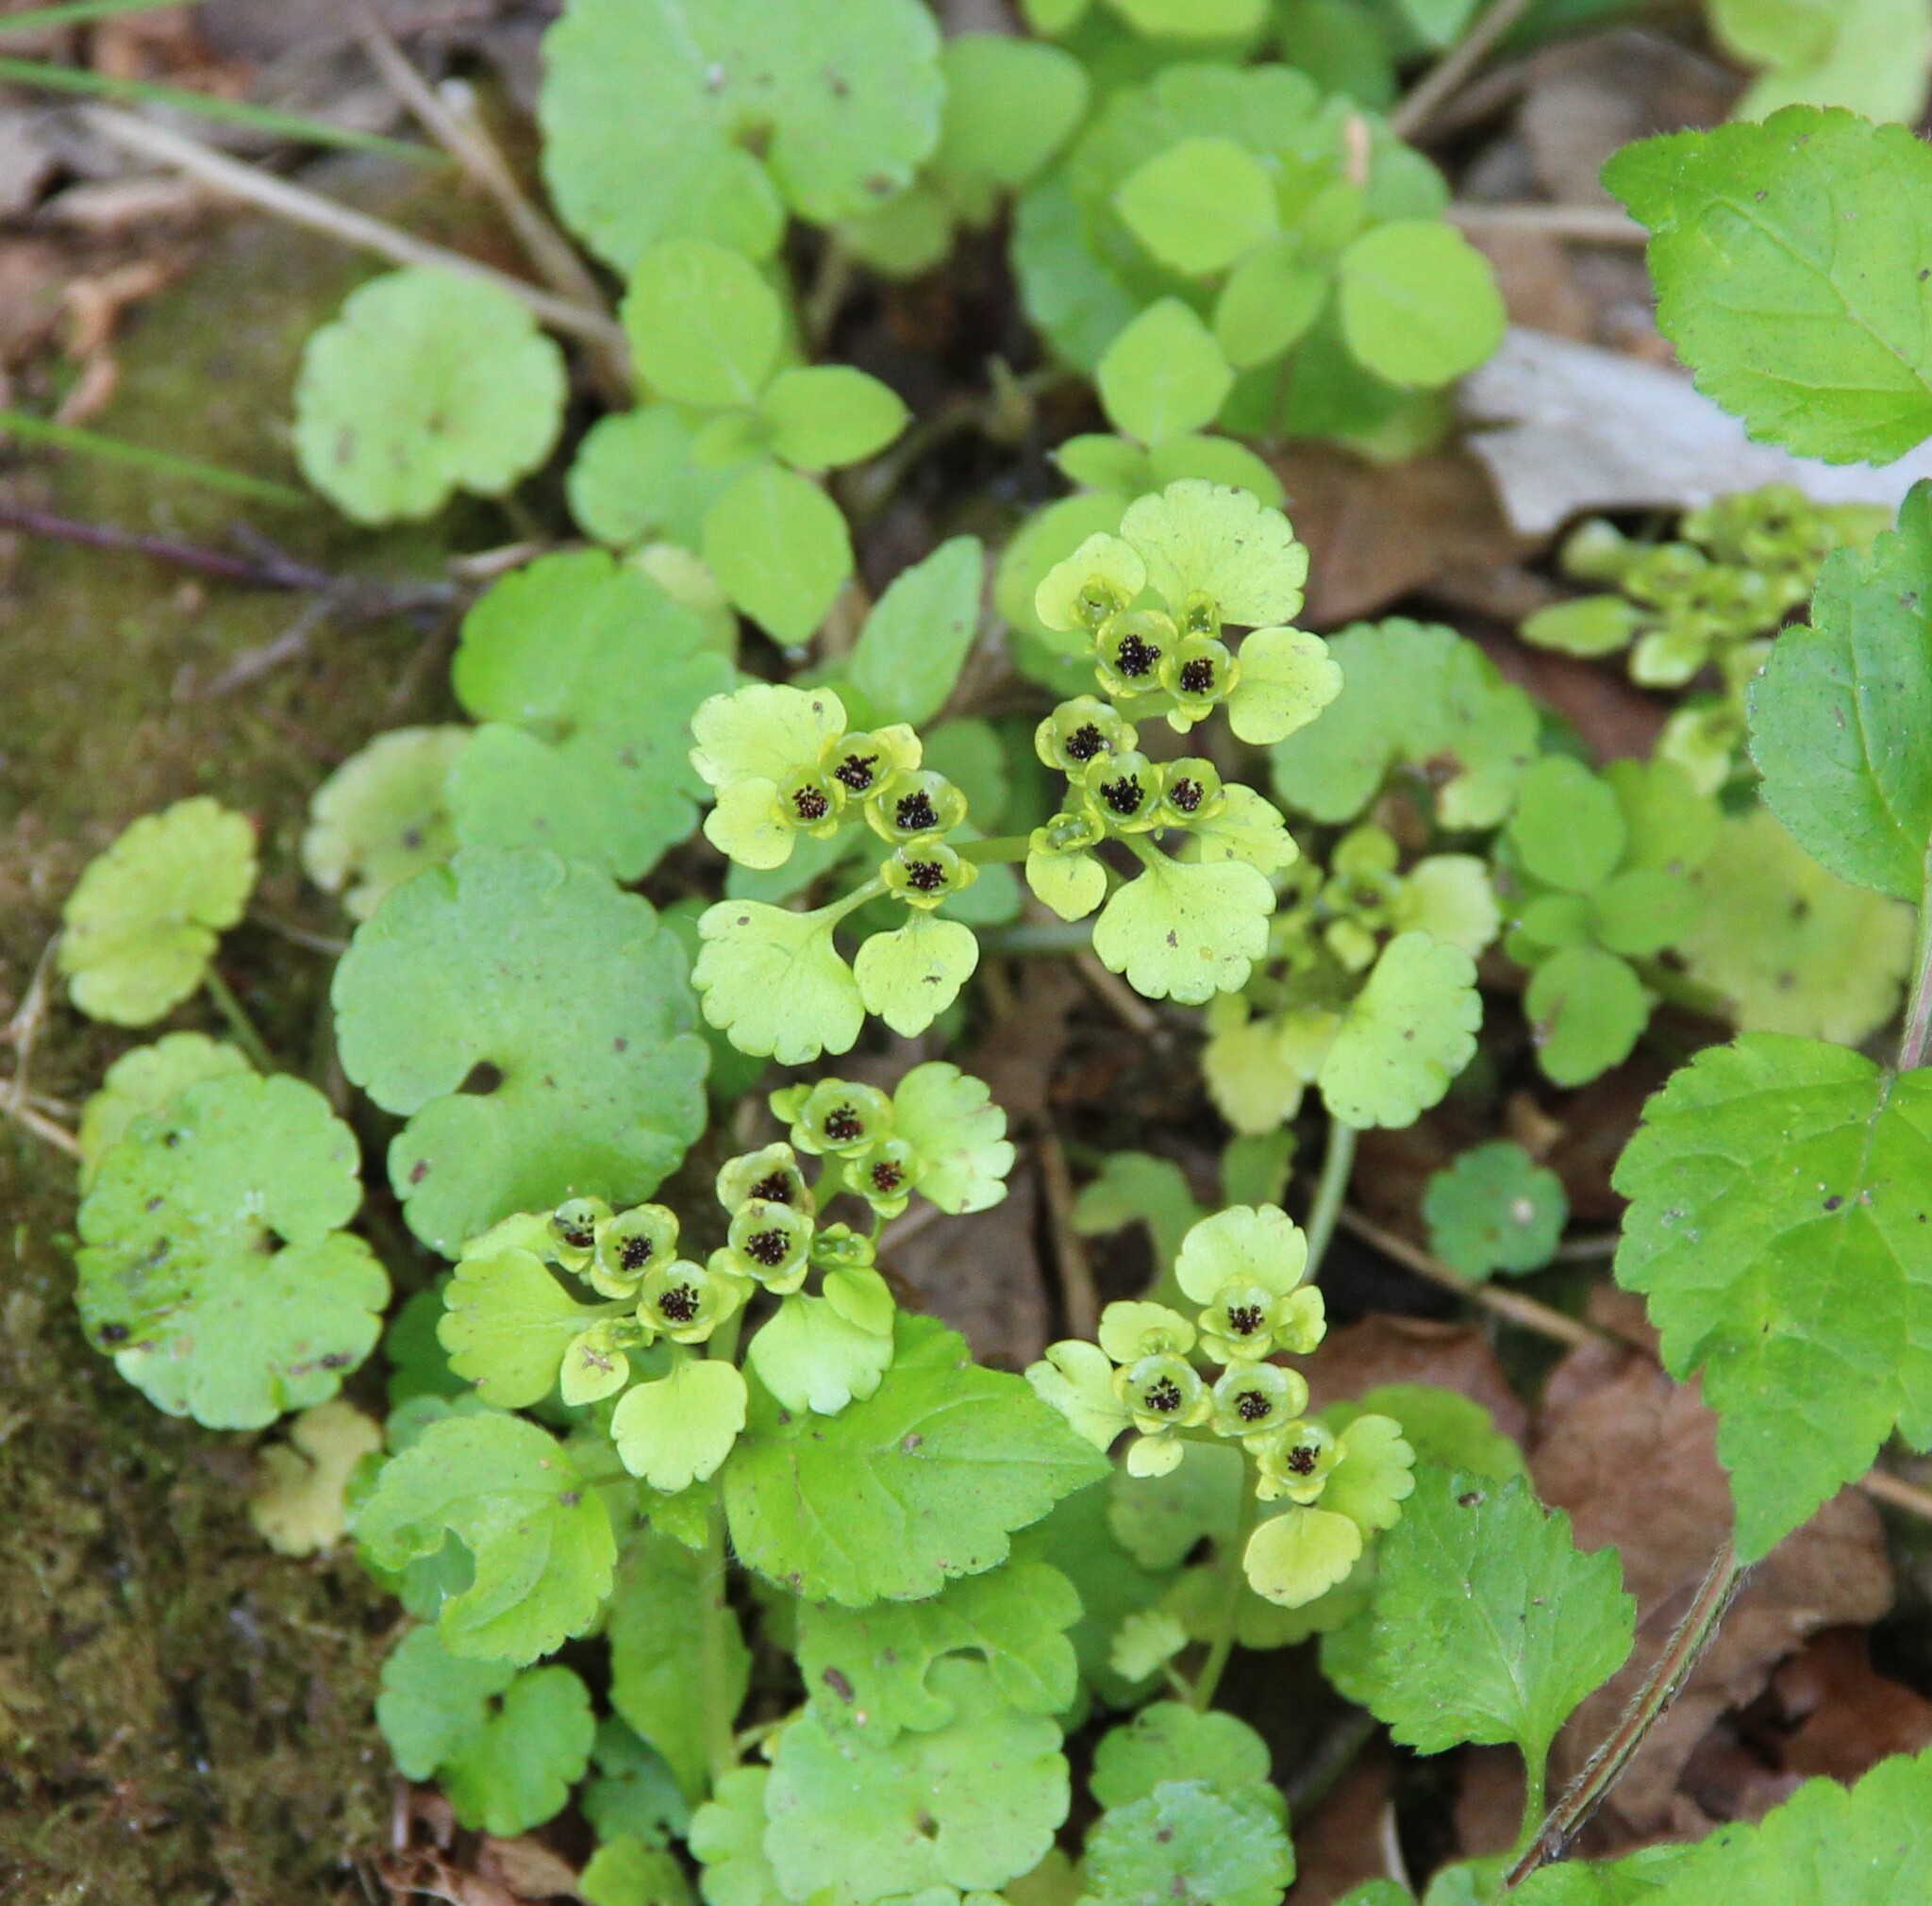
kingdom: Plantae
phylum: Tracheophyta
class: Magnoliopsida
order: Saxifragales
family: Saxifragaceae
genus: Chrysosplenium
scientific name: Chrysosplenium alternifolium
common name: Alternate-leaved golden-saxifrage
